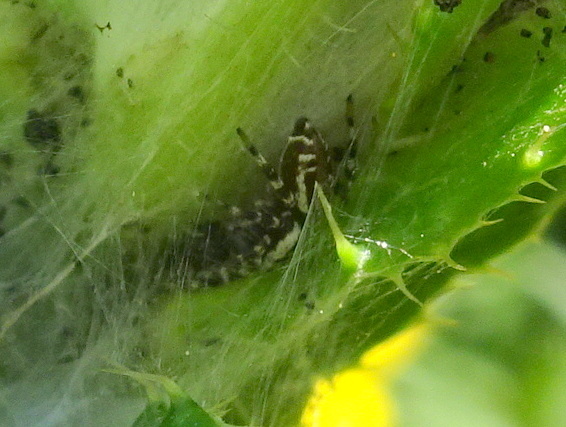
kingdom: Animalia
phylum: Arthropoda
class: Arachnida
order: Araneae
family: Salticidae
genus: Pelegrina
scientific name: Pelegrina galathea
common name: Jumping spiders
